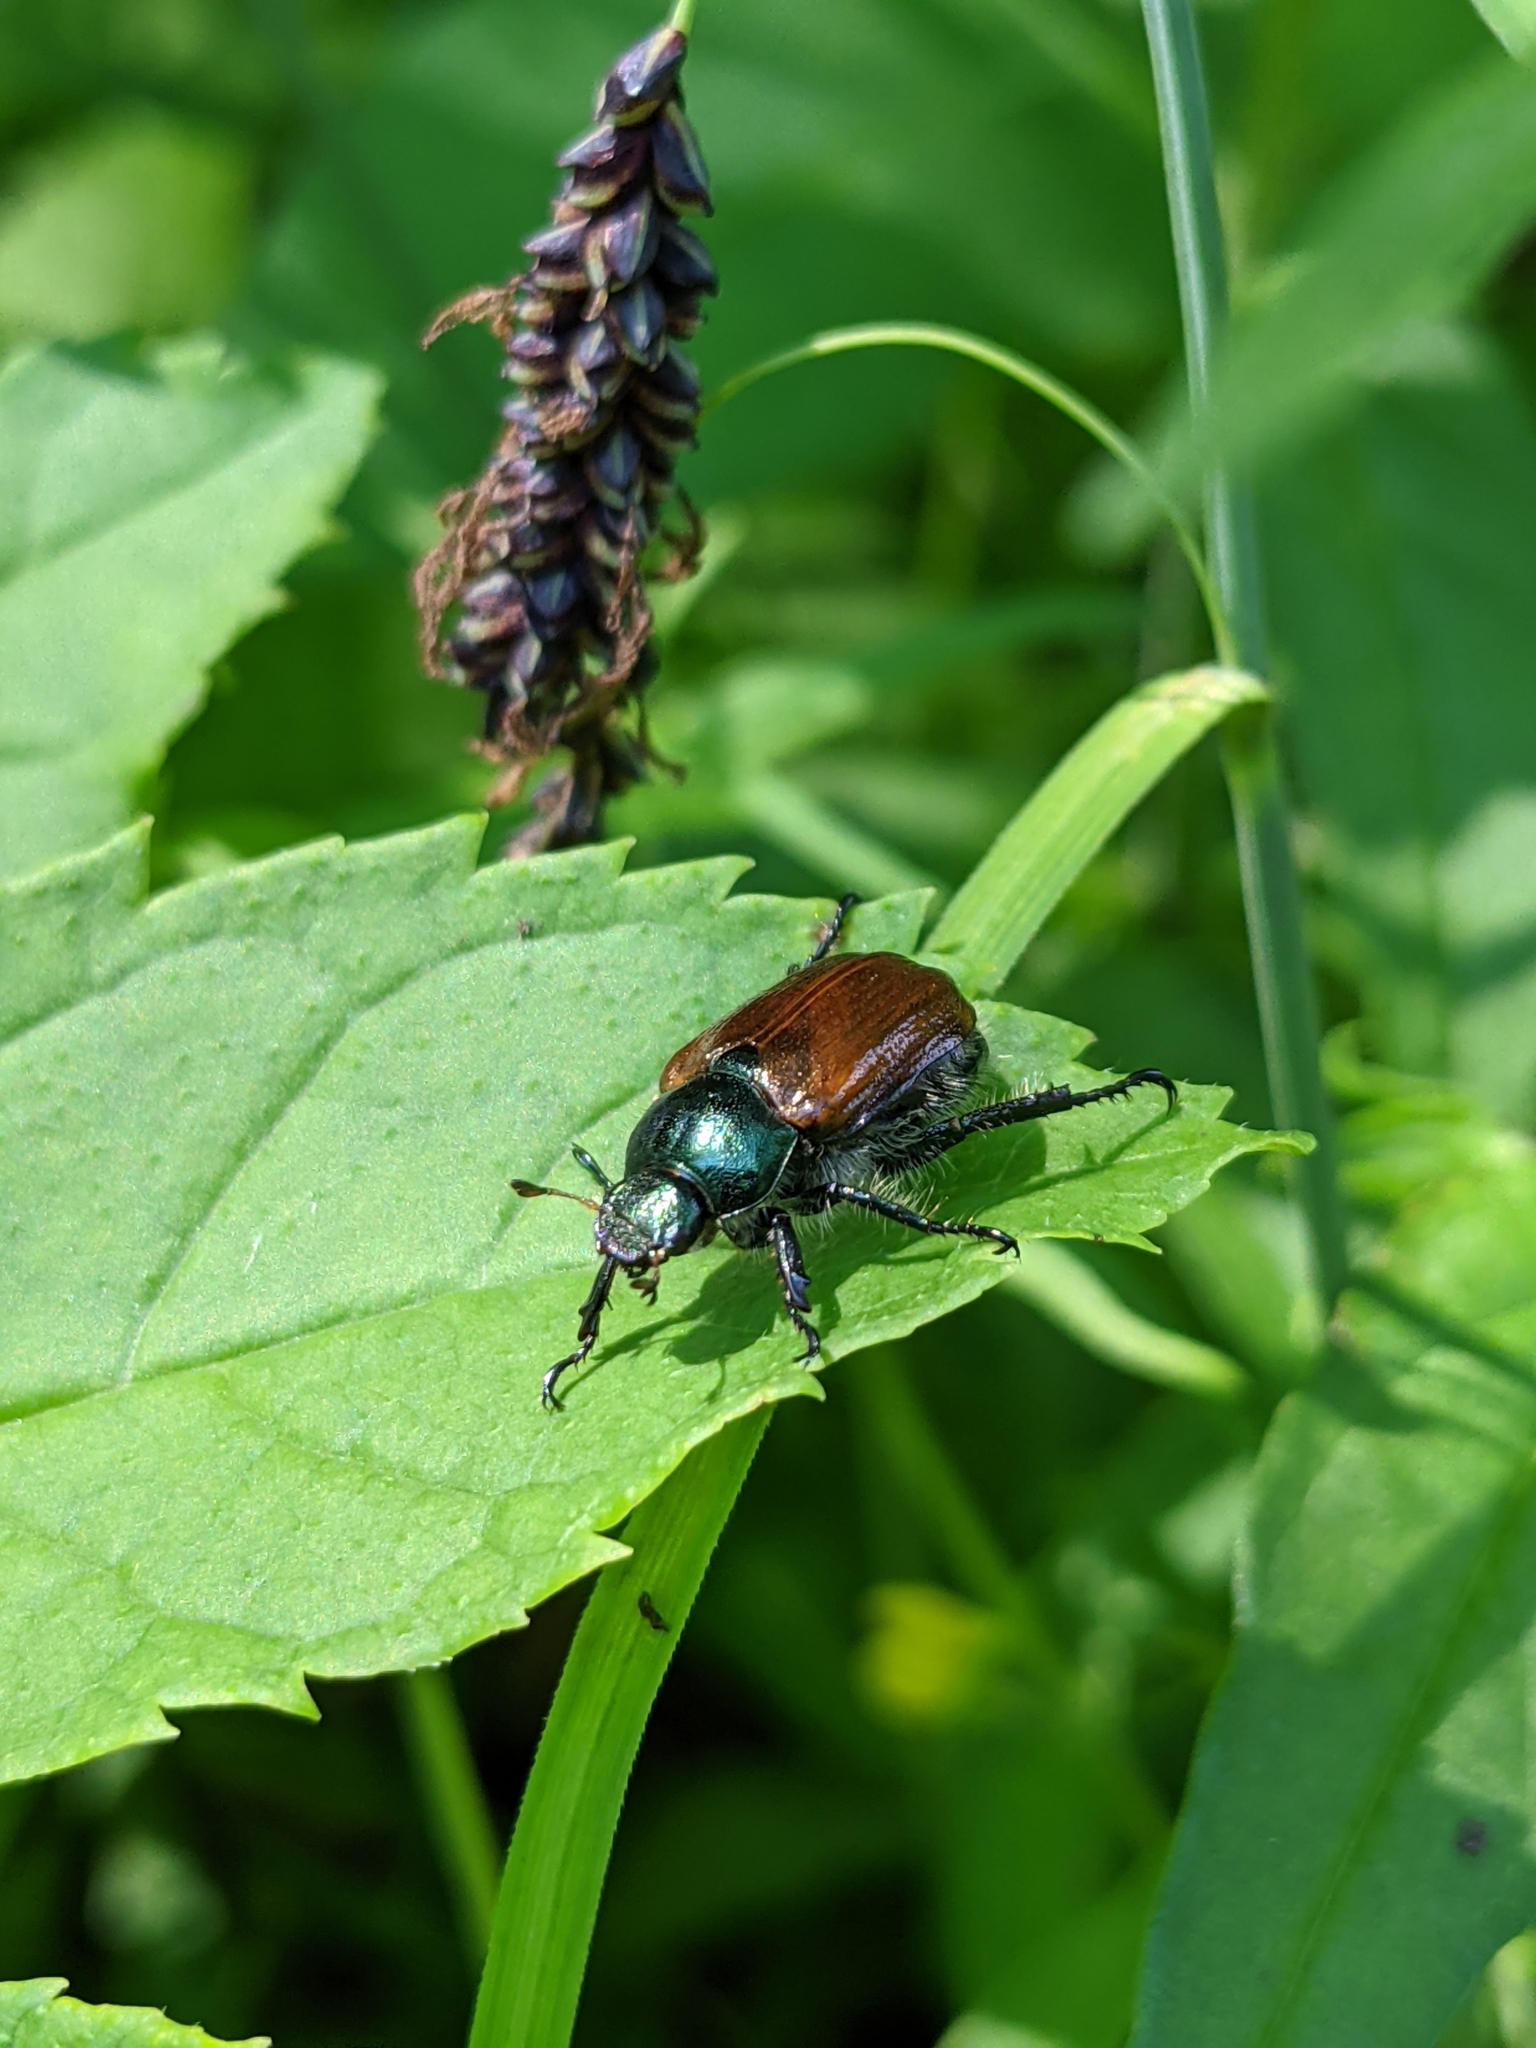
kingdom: Animalia
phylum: Arthropoda
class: Insecta
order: Coleoptera
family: Scarabaeidae
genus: Phyllopertha
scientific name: Phyllopertha horticola
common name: Garden chafer
